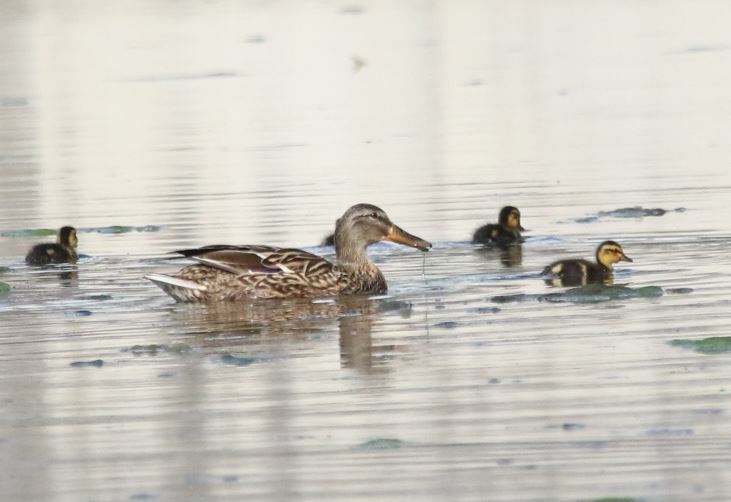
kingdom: Animalia
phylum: Chordata
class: Aves
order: Anseriformes
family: Anatidae
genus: Anas
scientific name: Anas platyrhynchos
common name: Mallard
